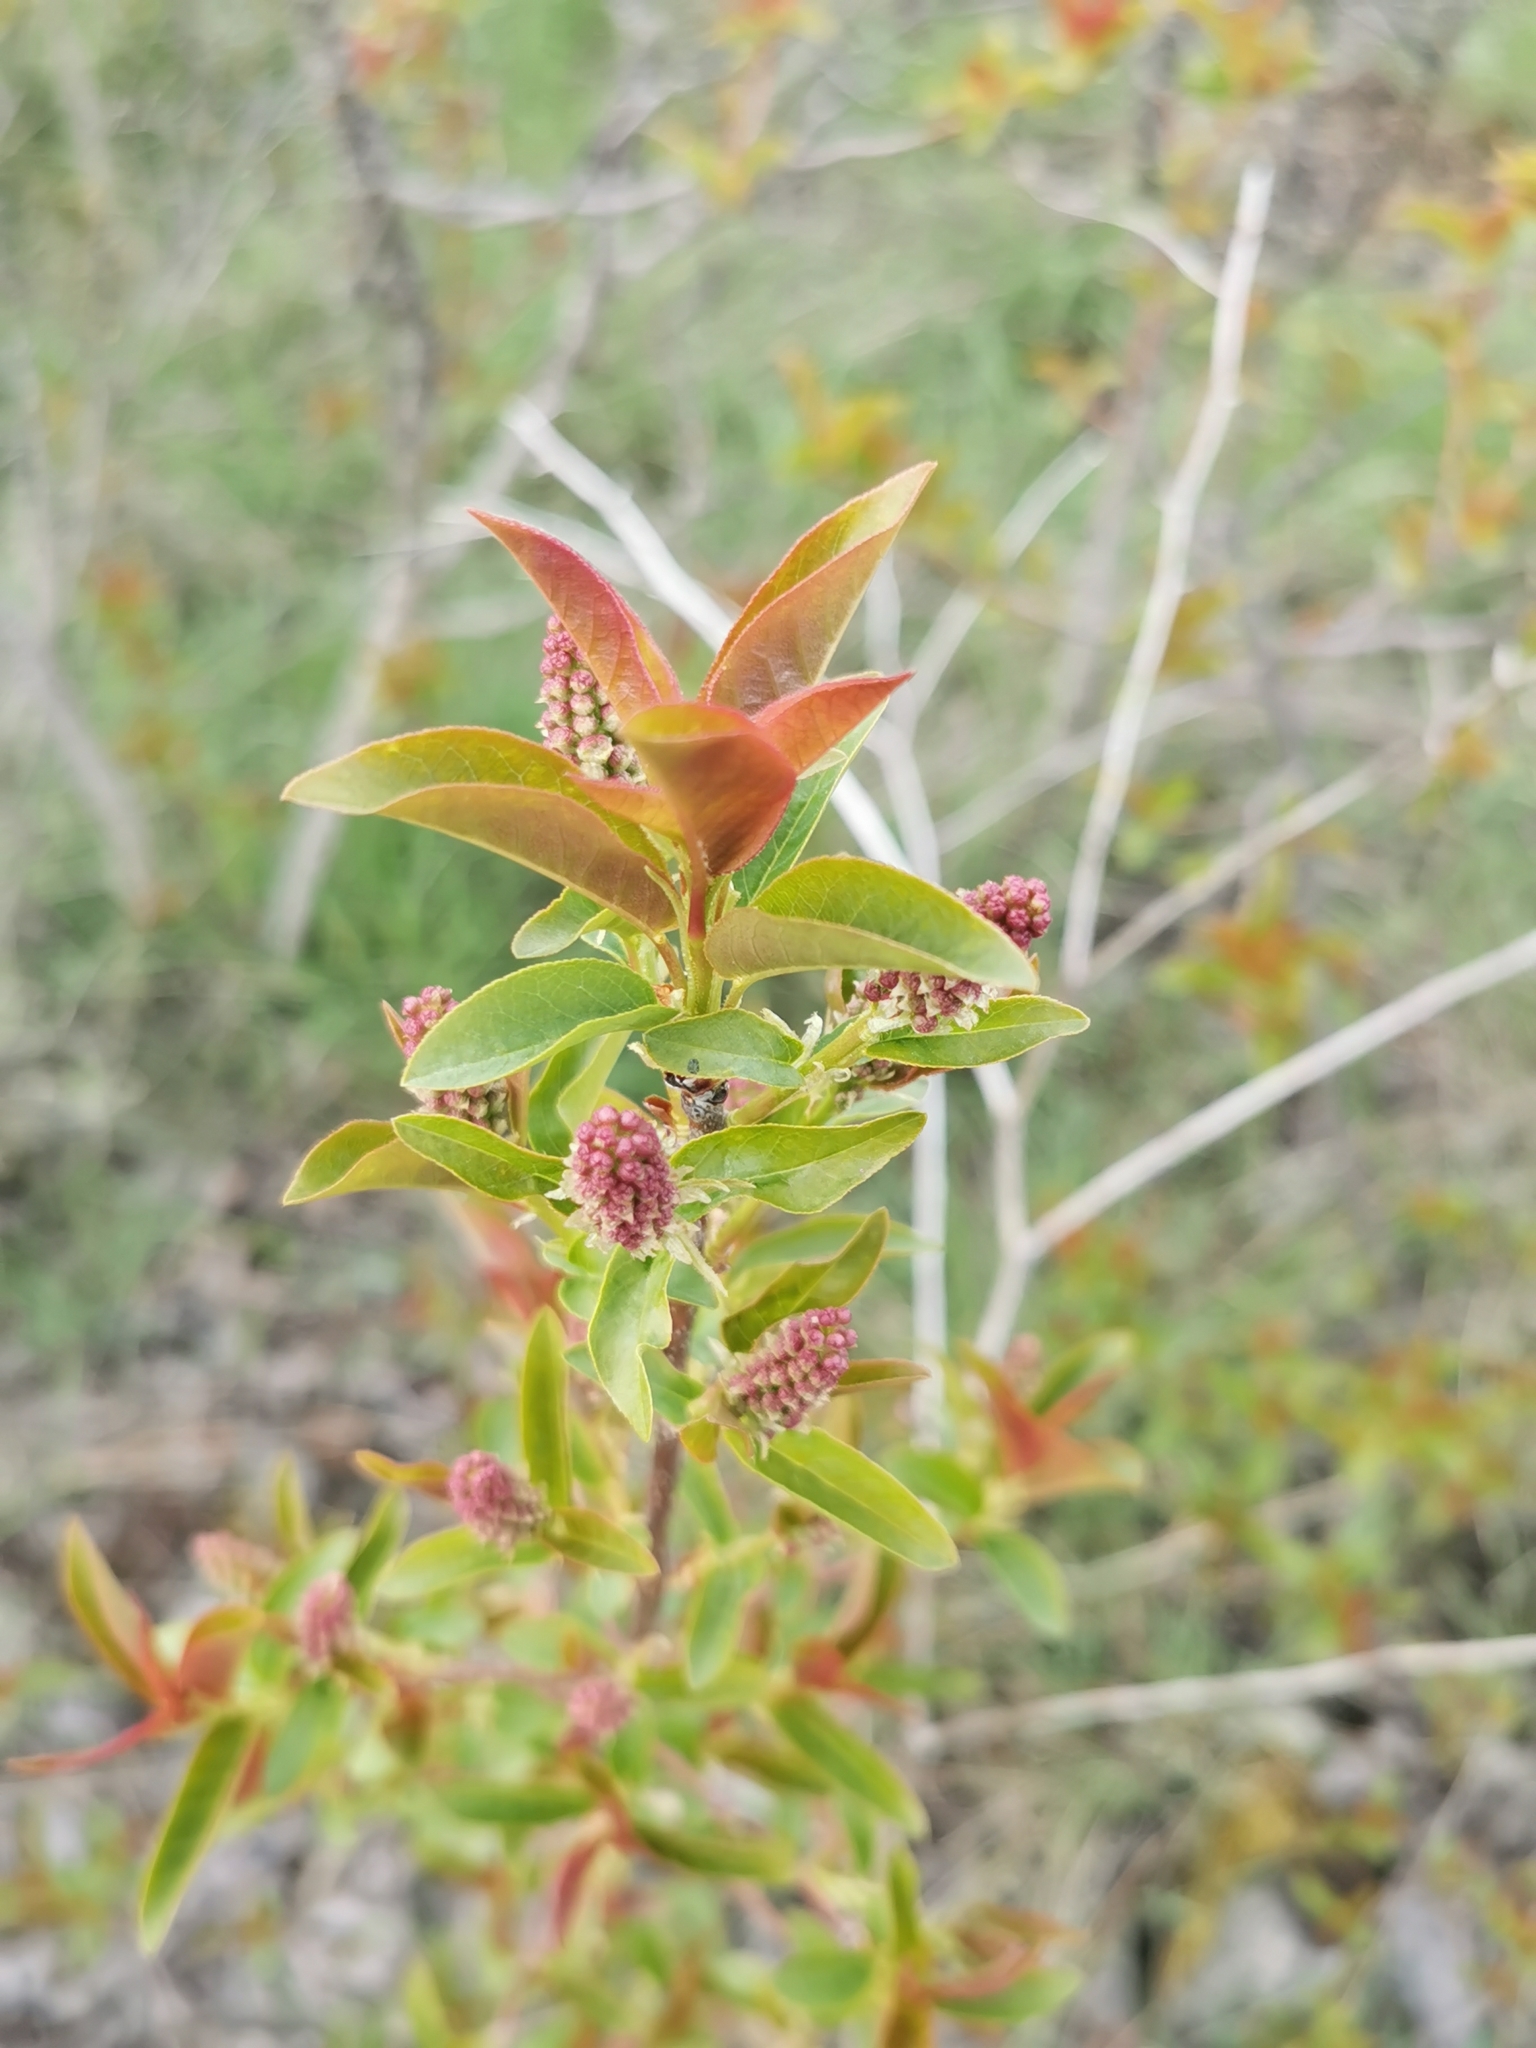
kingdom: Plantae
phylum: Tracheophyta
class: Magnoliopsida
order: Rosales
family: Rosaceae
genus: Prunus
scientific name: Prunus virginiana
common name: Chokecherry
